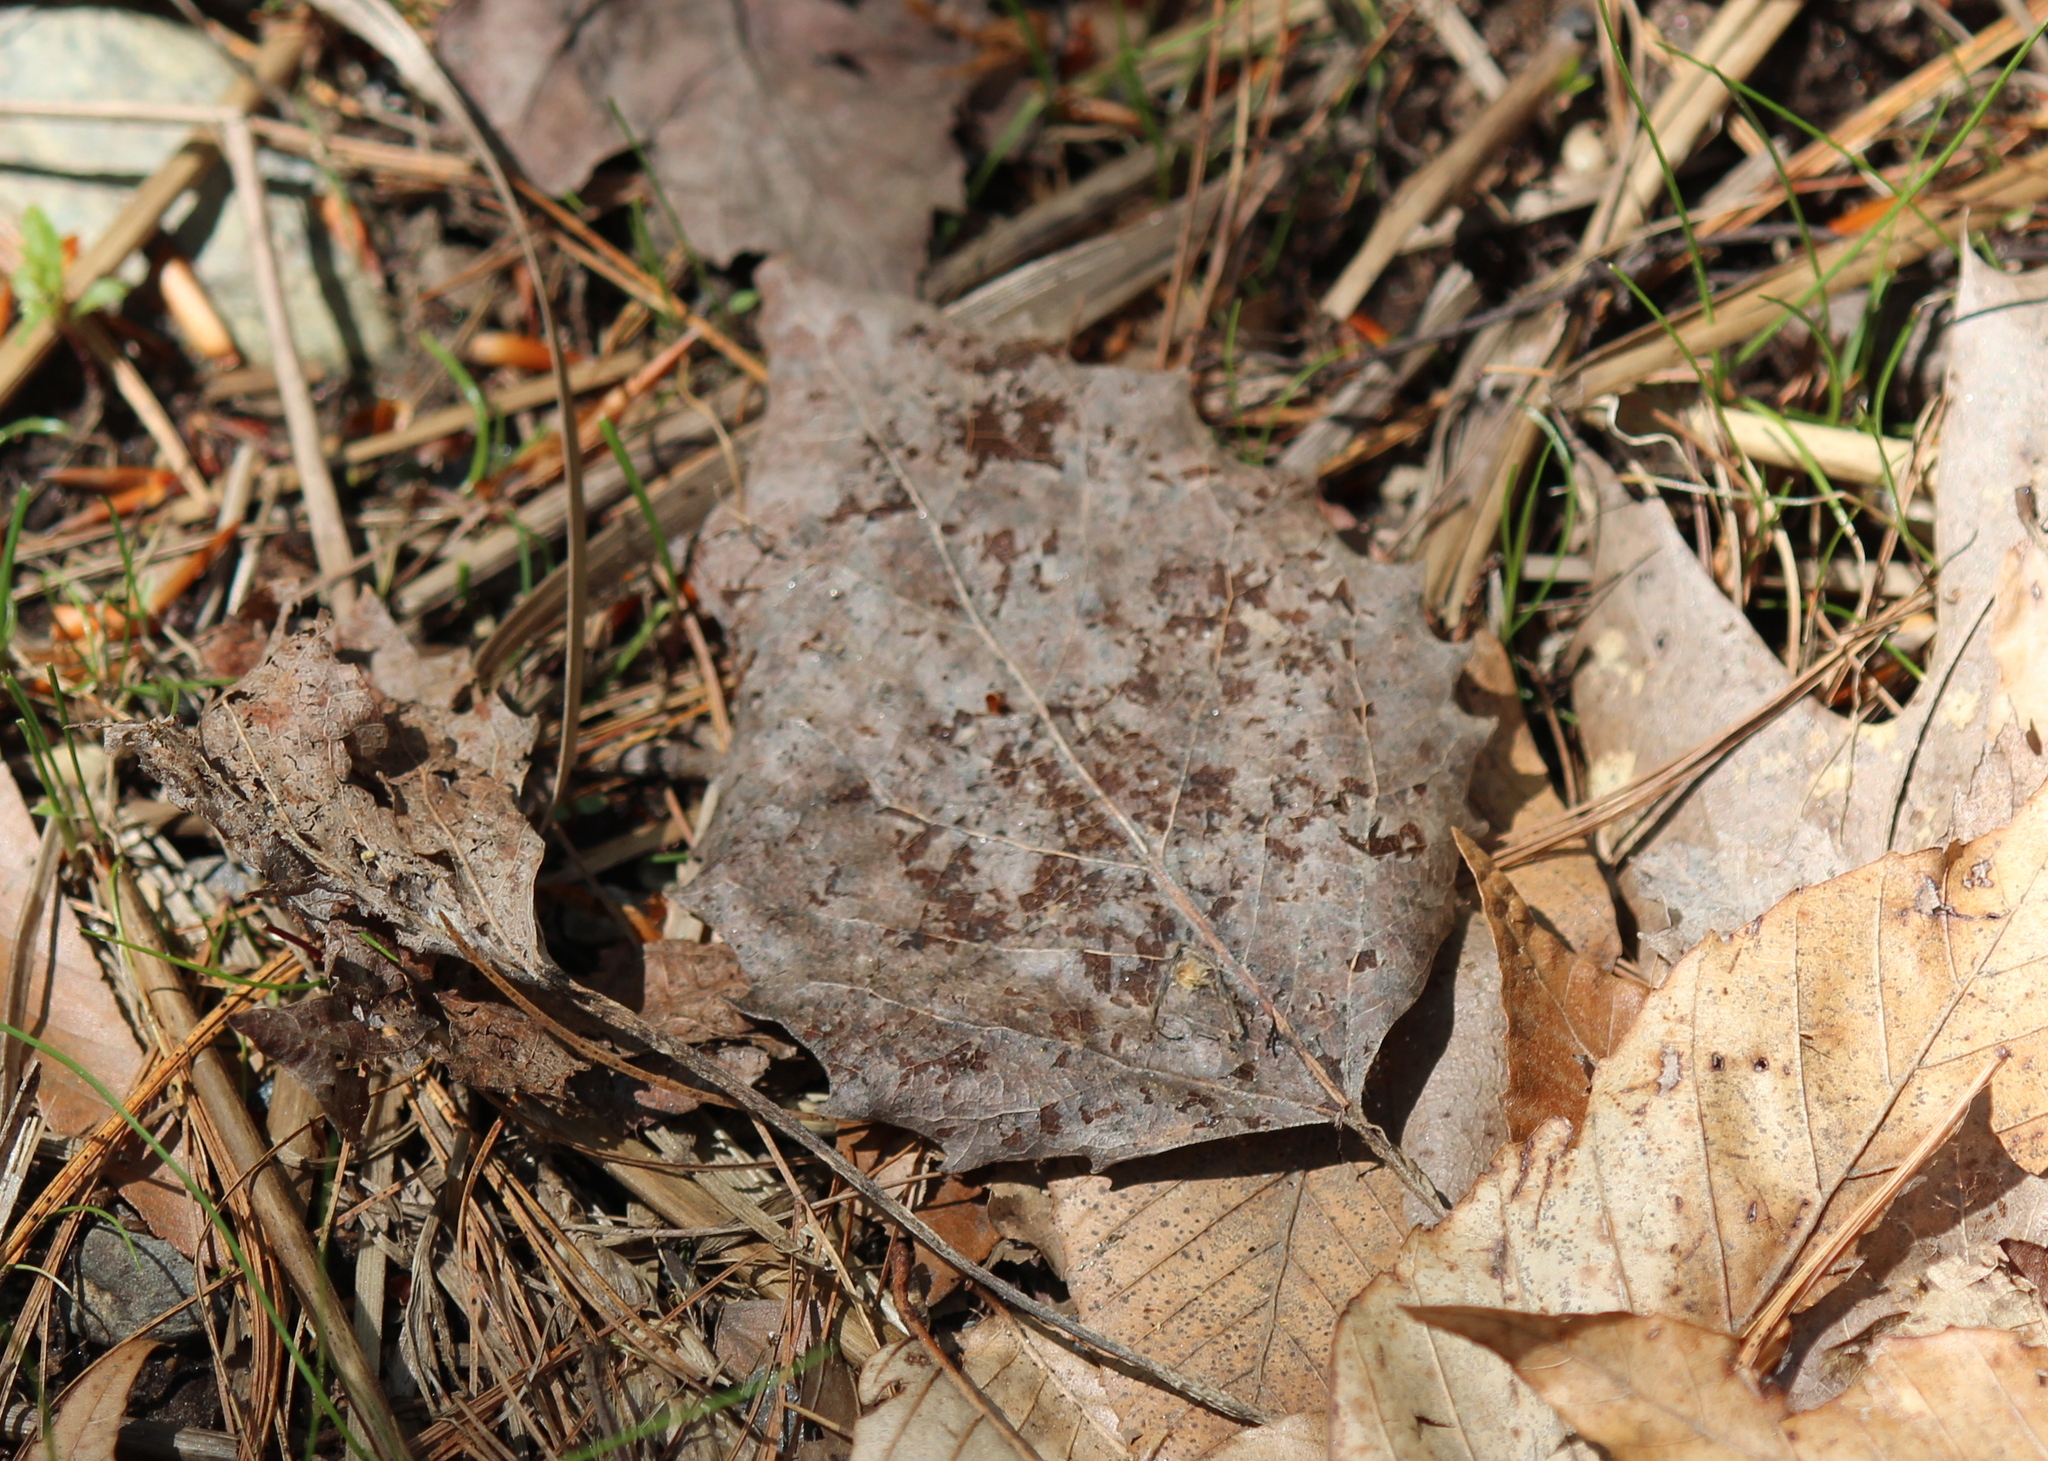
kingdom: Plantae
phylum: Tracheophyta
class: Magnoliopsida
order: Malpighiales
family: Salicaceae
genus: Populus
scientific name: Populus grandidentata
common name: Bigtooth aspen
